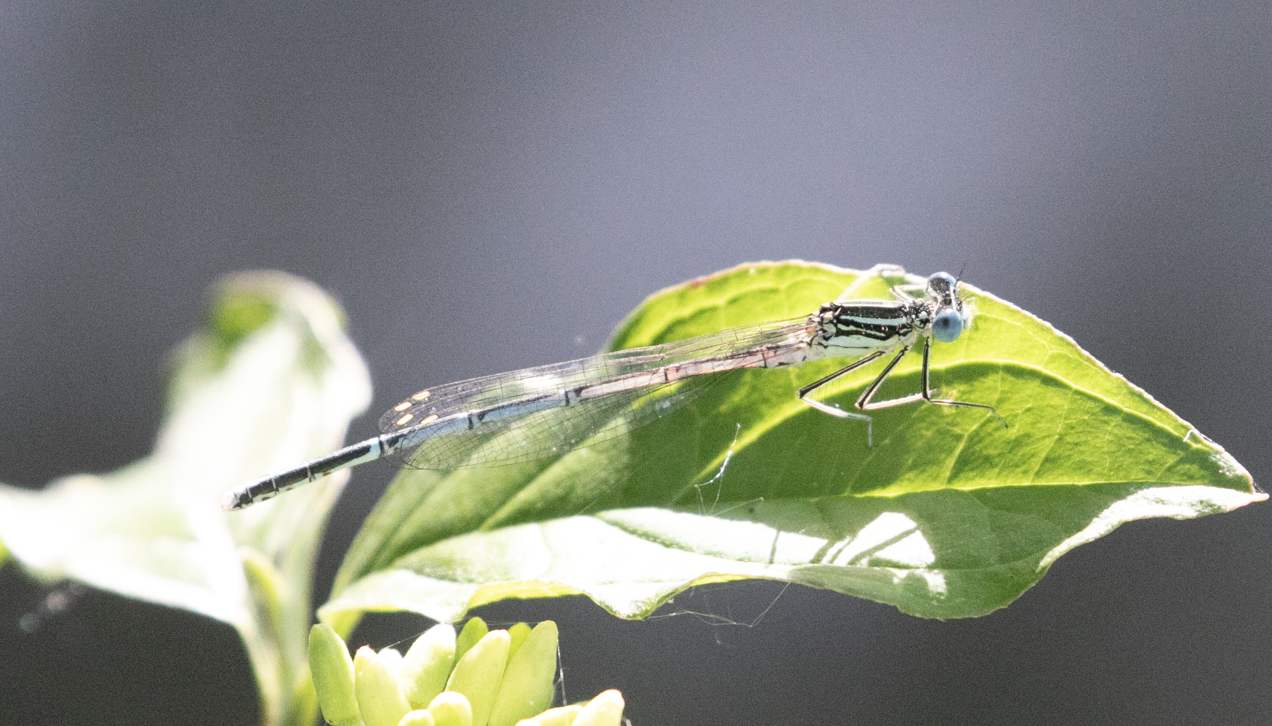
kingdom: Animalia
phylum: Arthropoda
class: Insecta
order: Odonata
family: Platycnemididae
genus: Platycnemis
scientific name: Platycnemis pennipes
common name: White-legged damselfly
